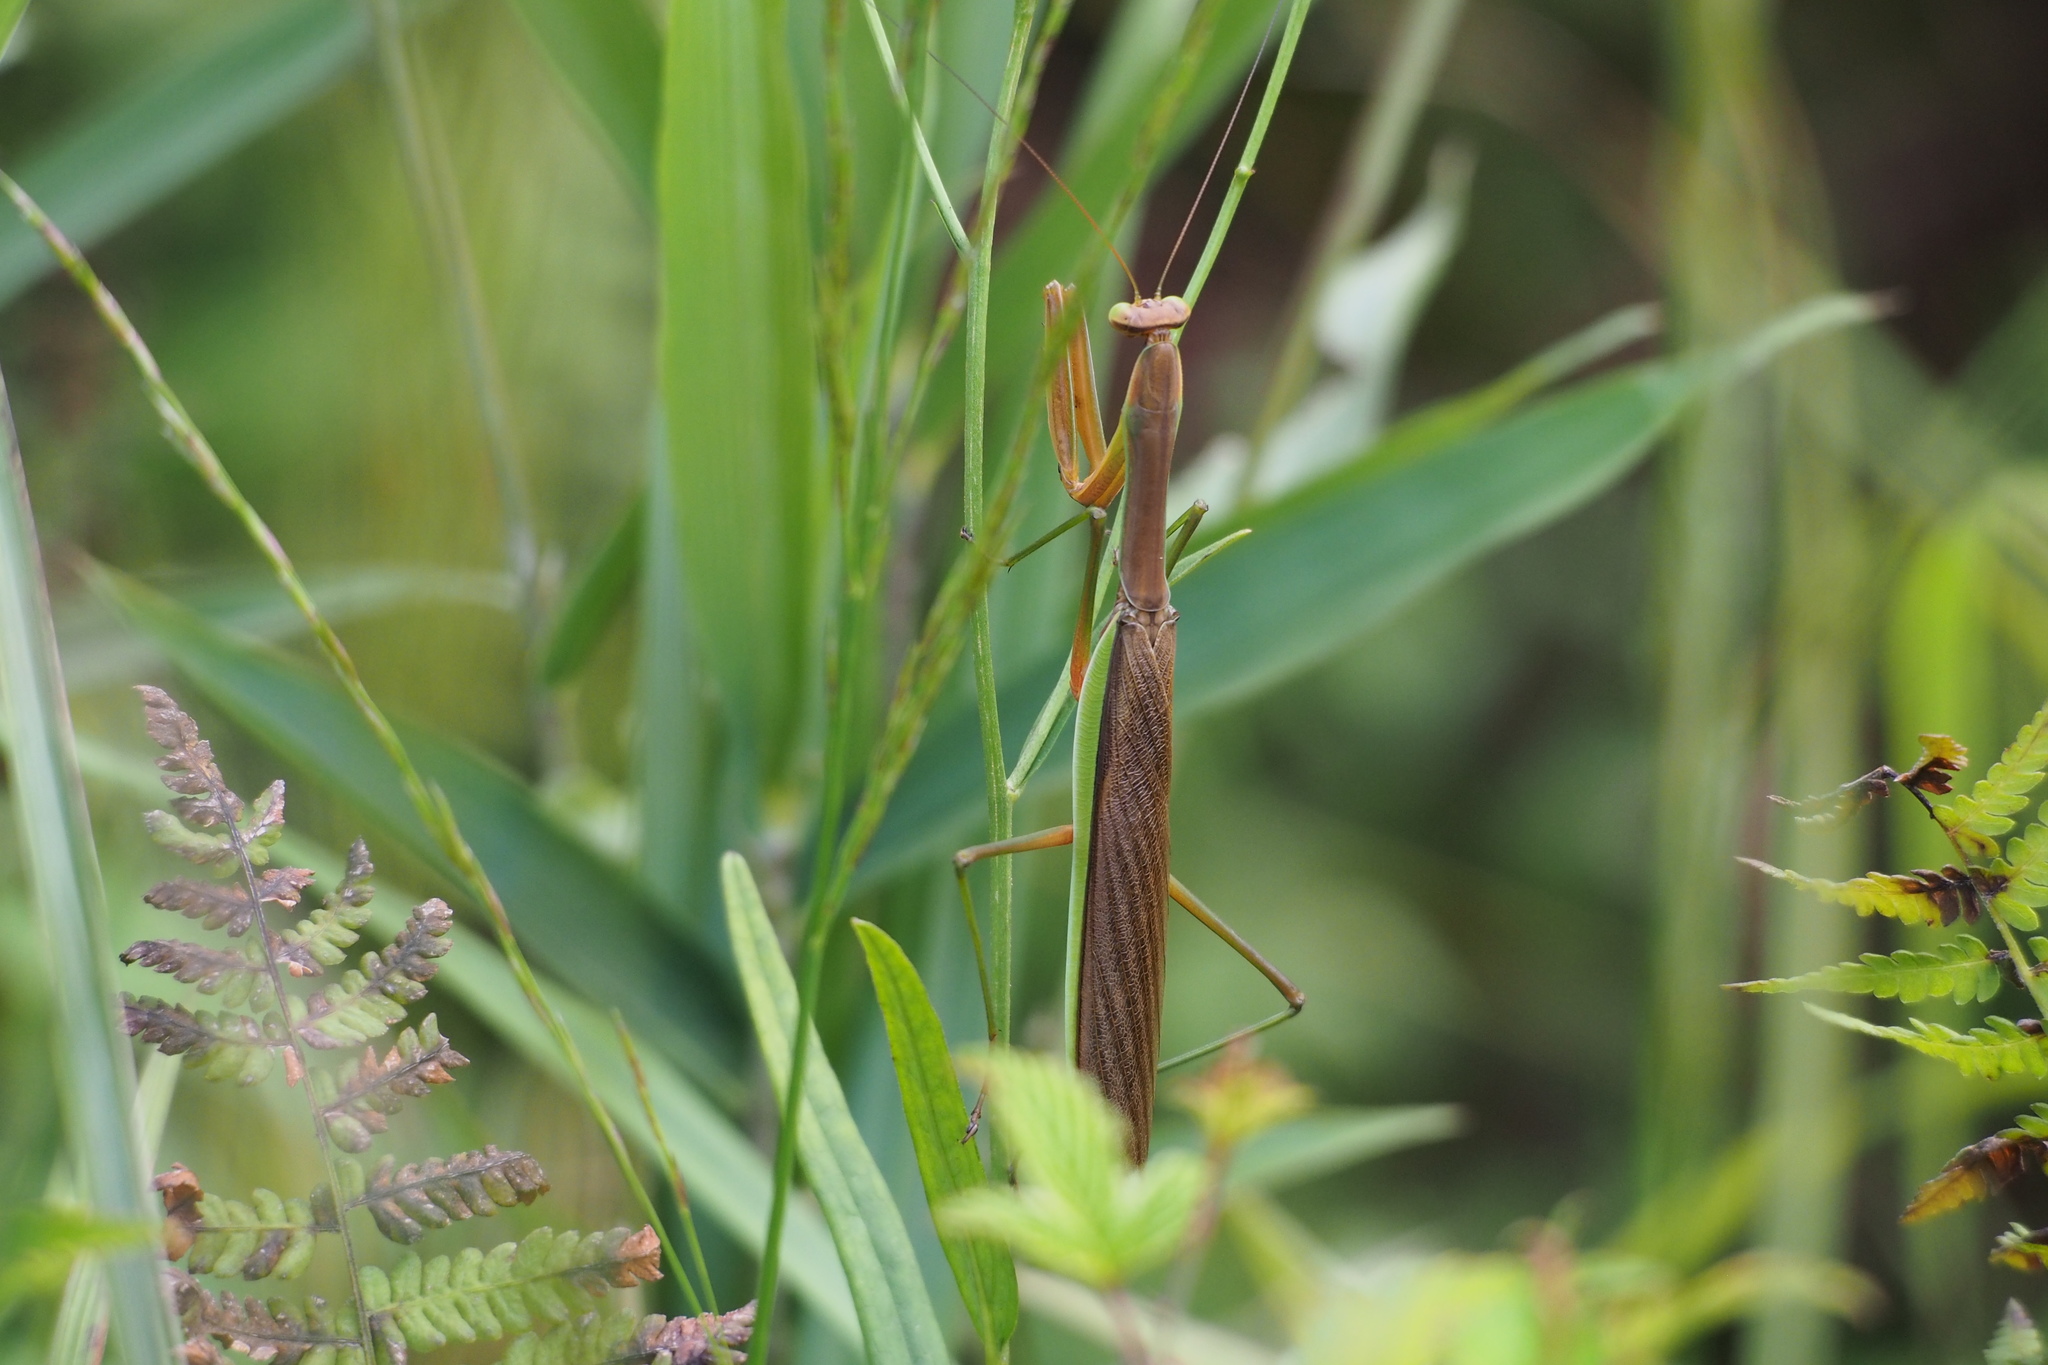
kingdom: Animalia
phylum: Arthropoda
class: Insecta
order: Mantodea
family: Mantidae
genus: Tenodera
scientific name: Tenodera sinensis
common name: Chinese mantis
